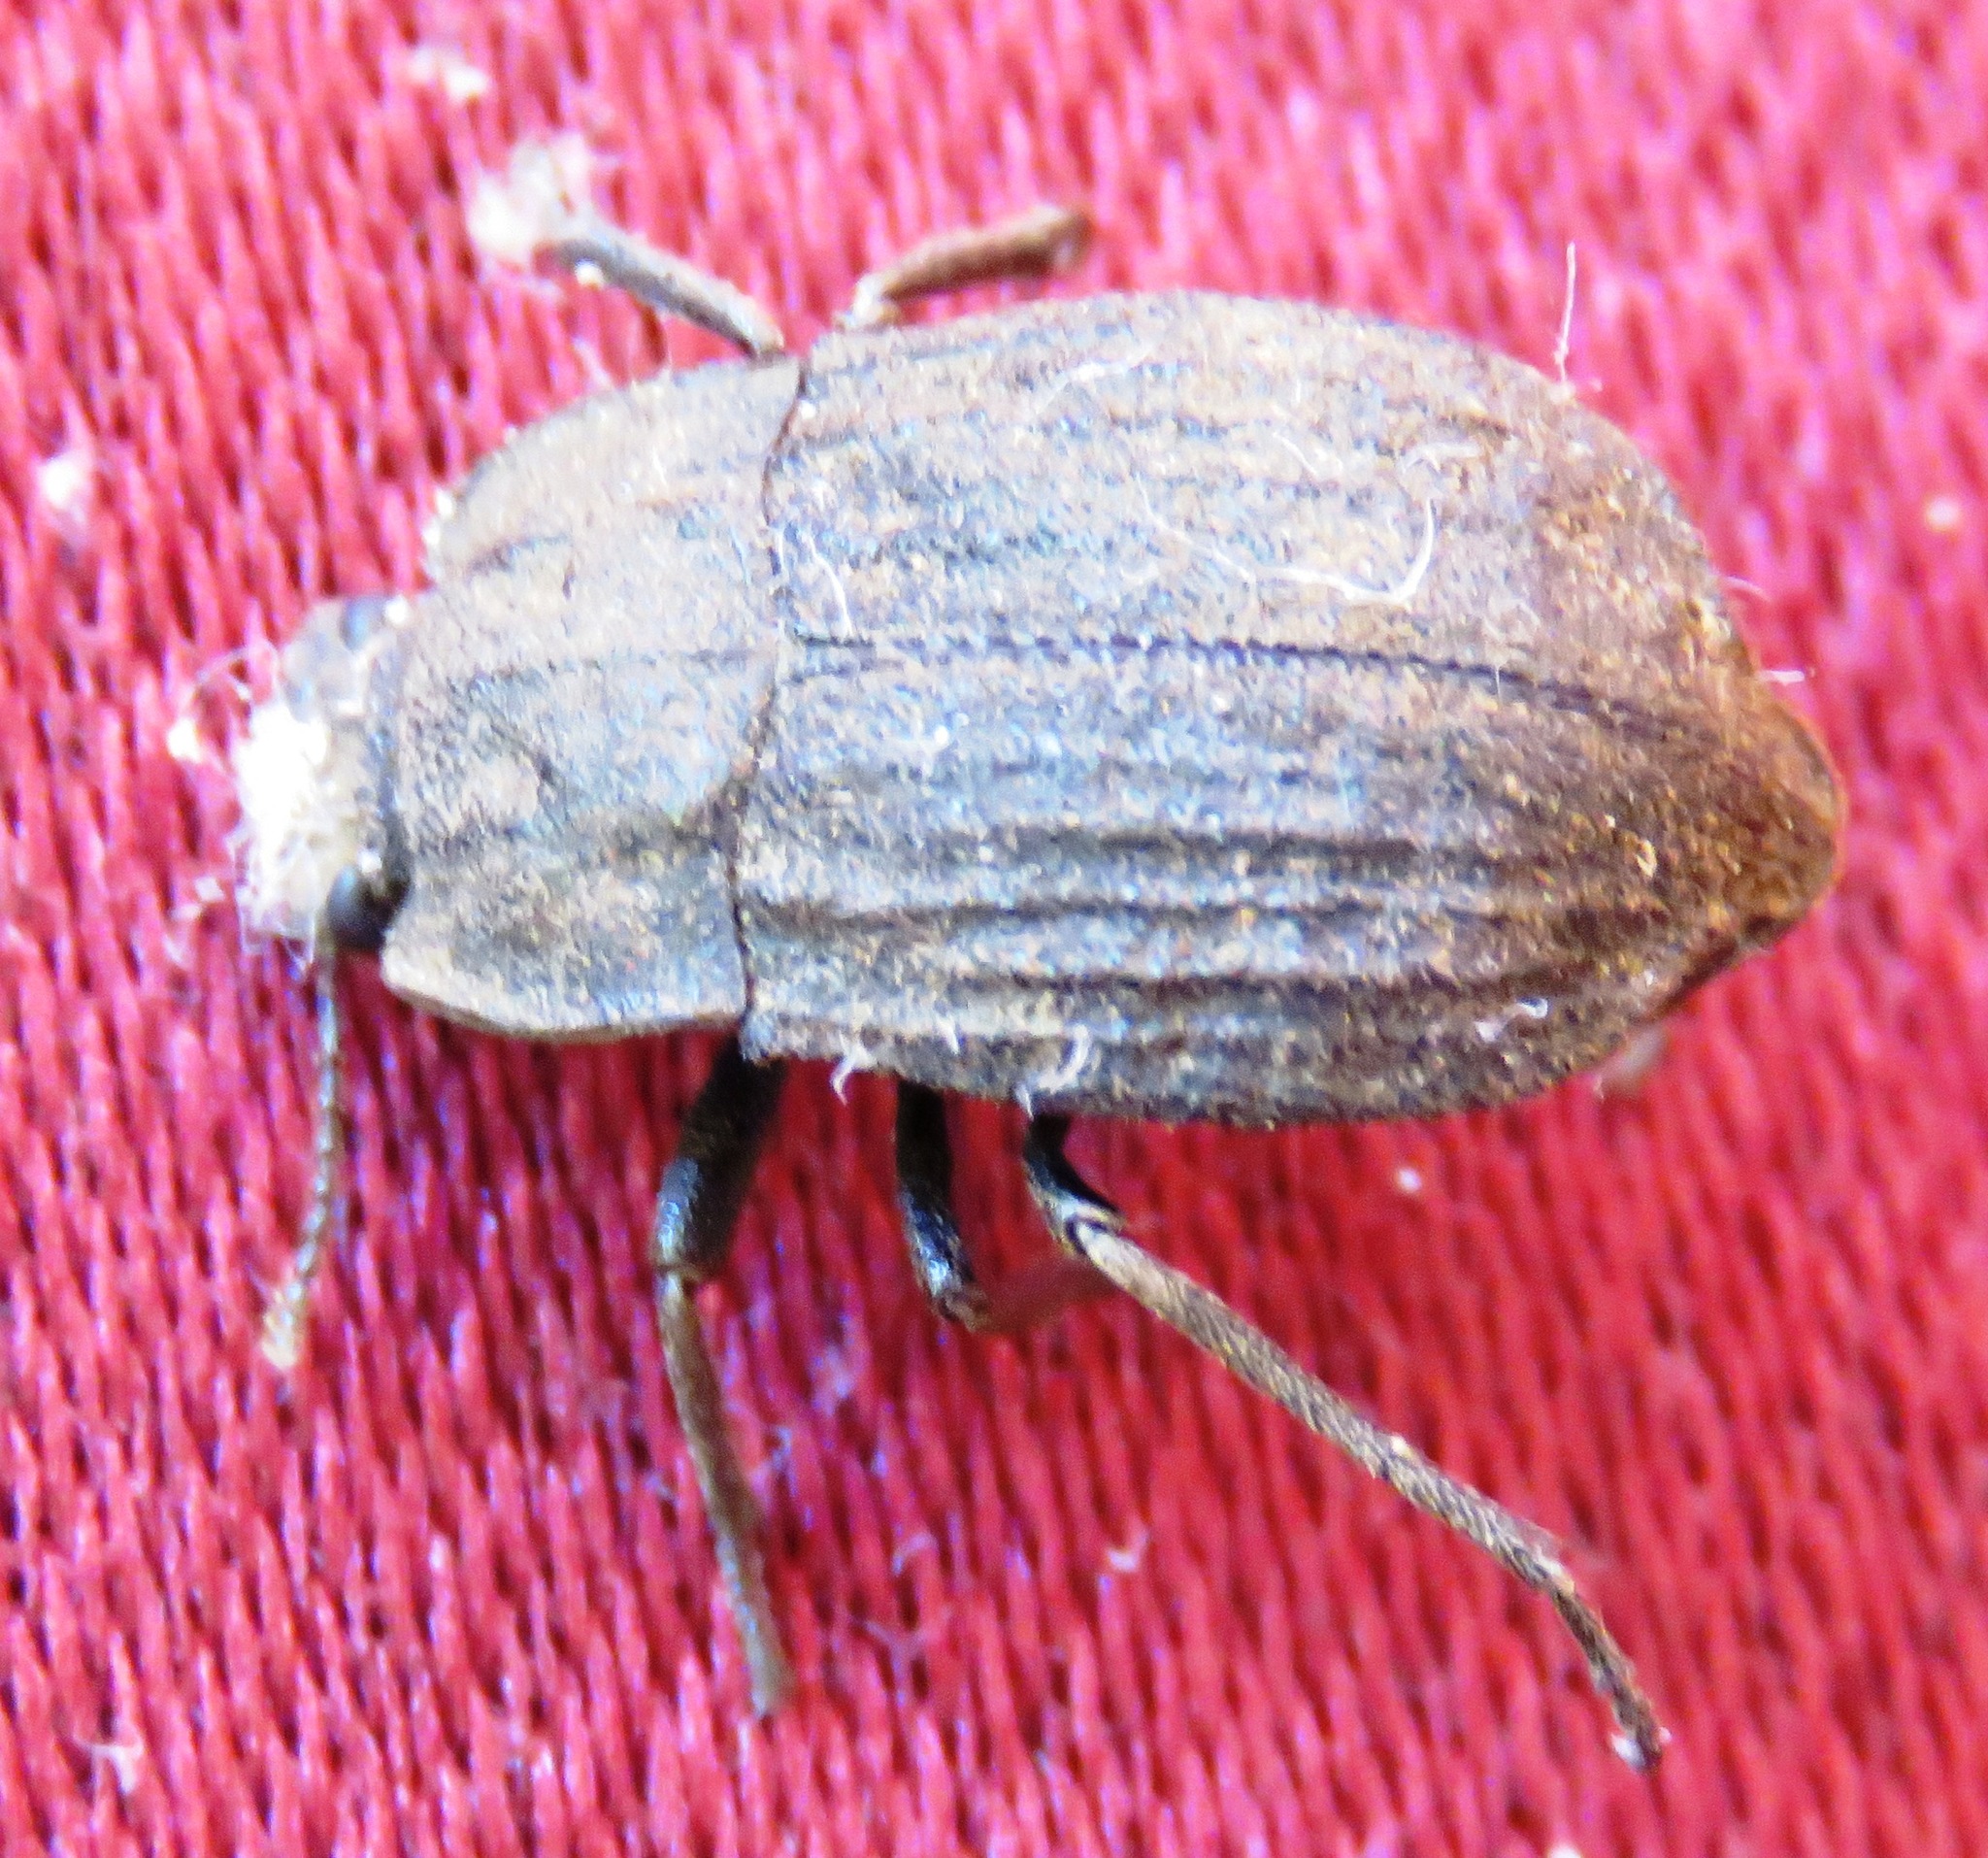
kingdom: Animalia
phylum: Arthropoda
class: Insecta
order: Coleoptera
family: Tenebrionidae
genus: Branchus
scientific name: Branchus obscurus
